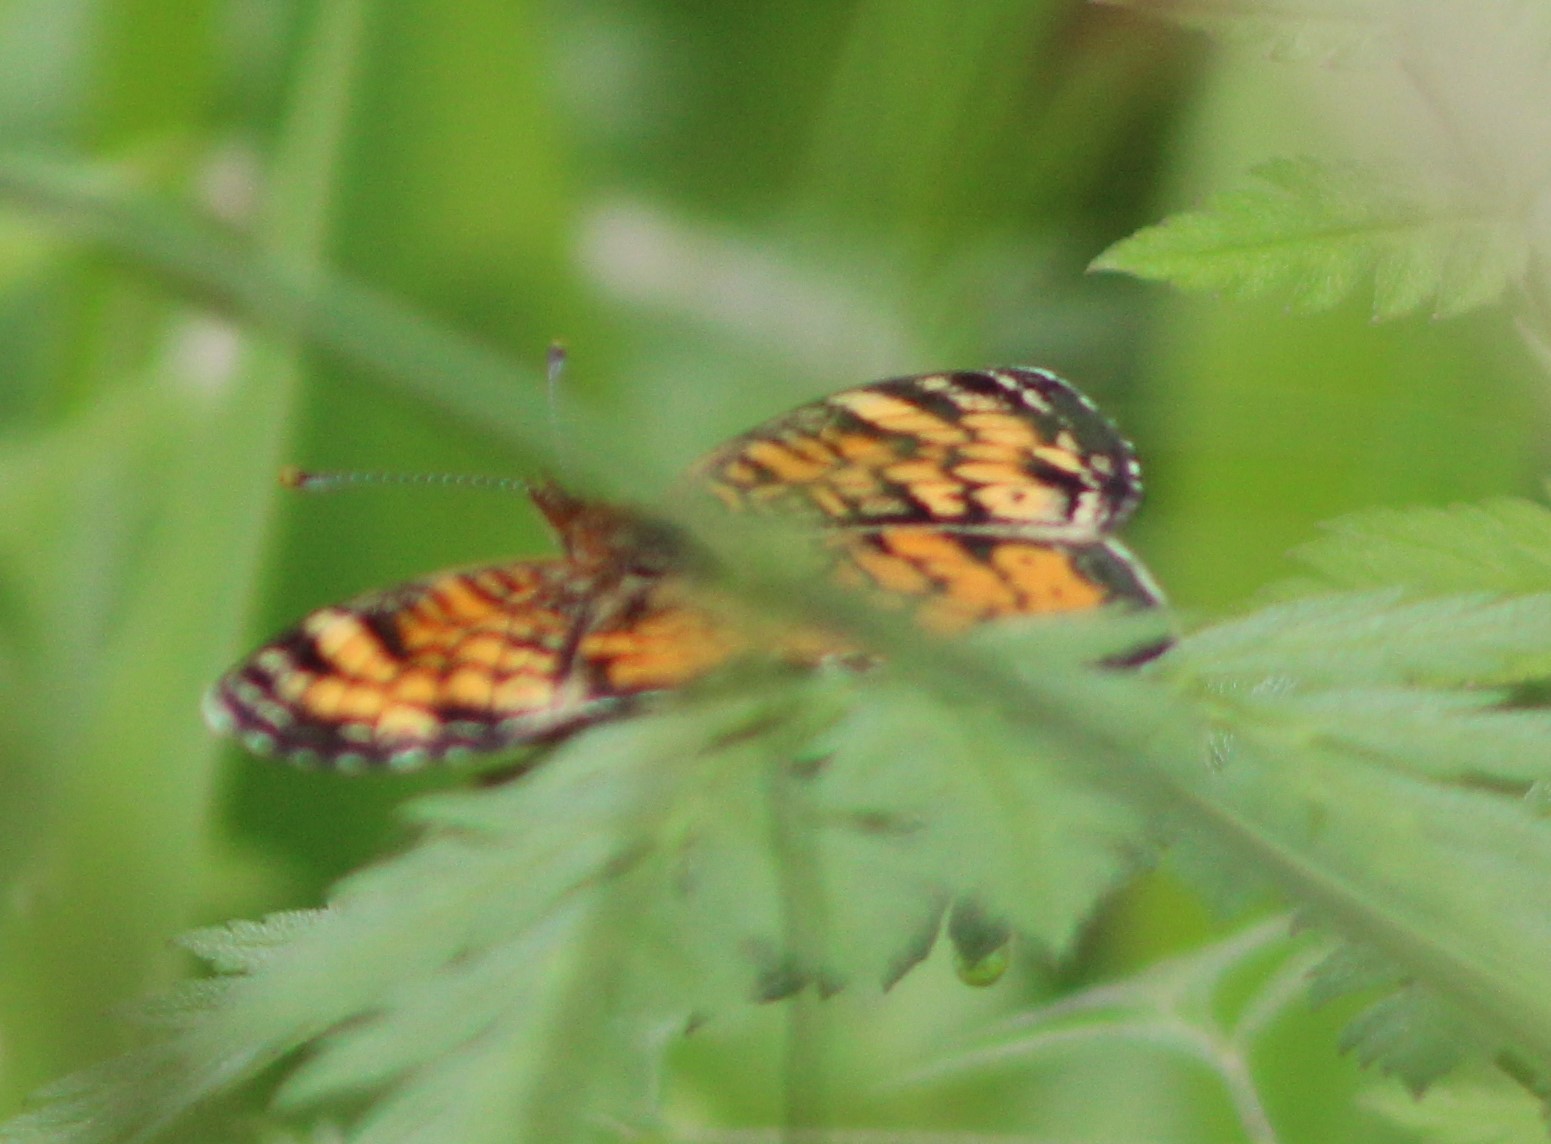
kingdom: Animalia
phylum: Arthropoda
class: Insecta
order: Lepidoptera
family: Nymphalidae
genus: Phyciodes
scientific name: Phyciodes tharos
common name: Pearl crescent
